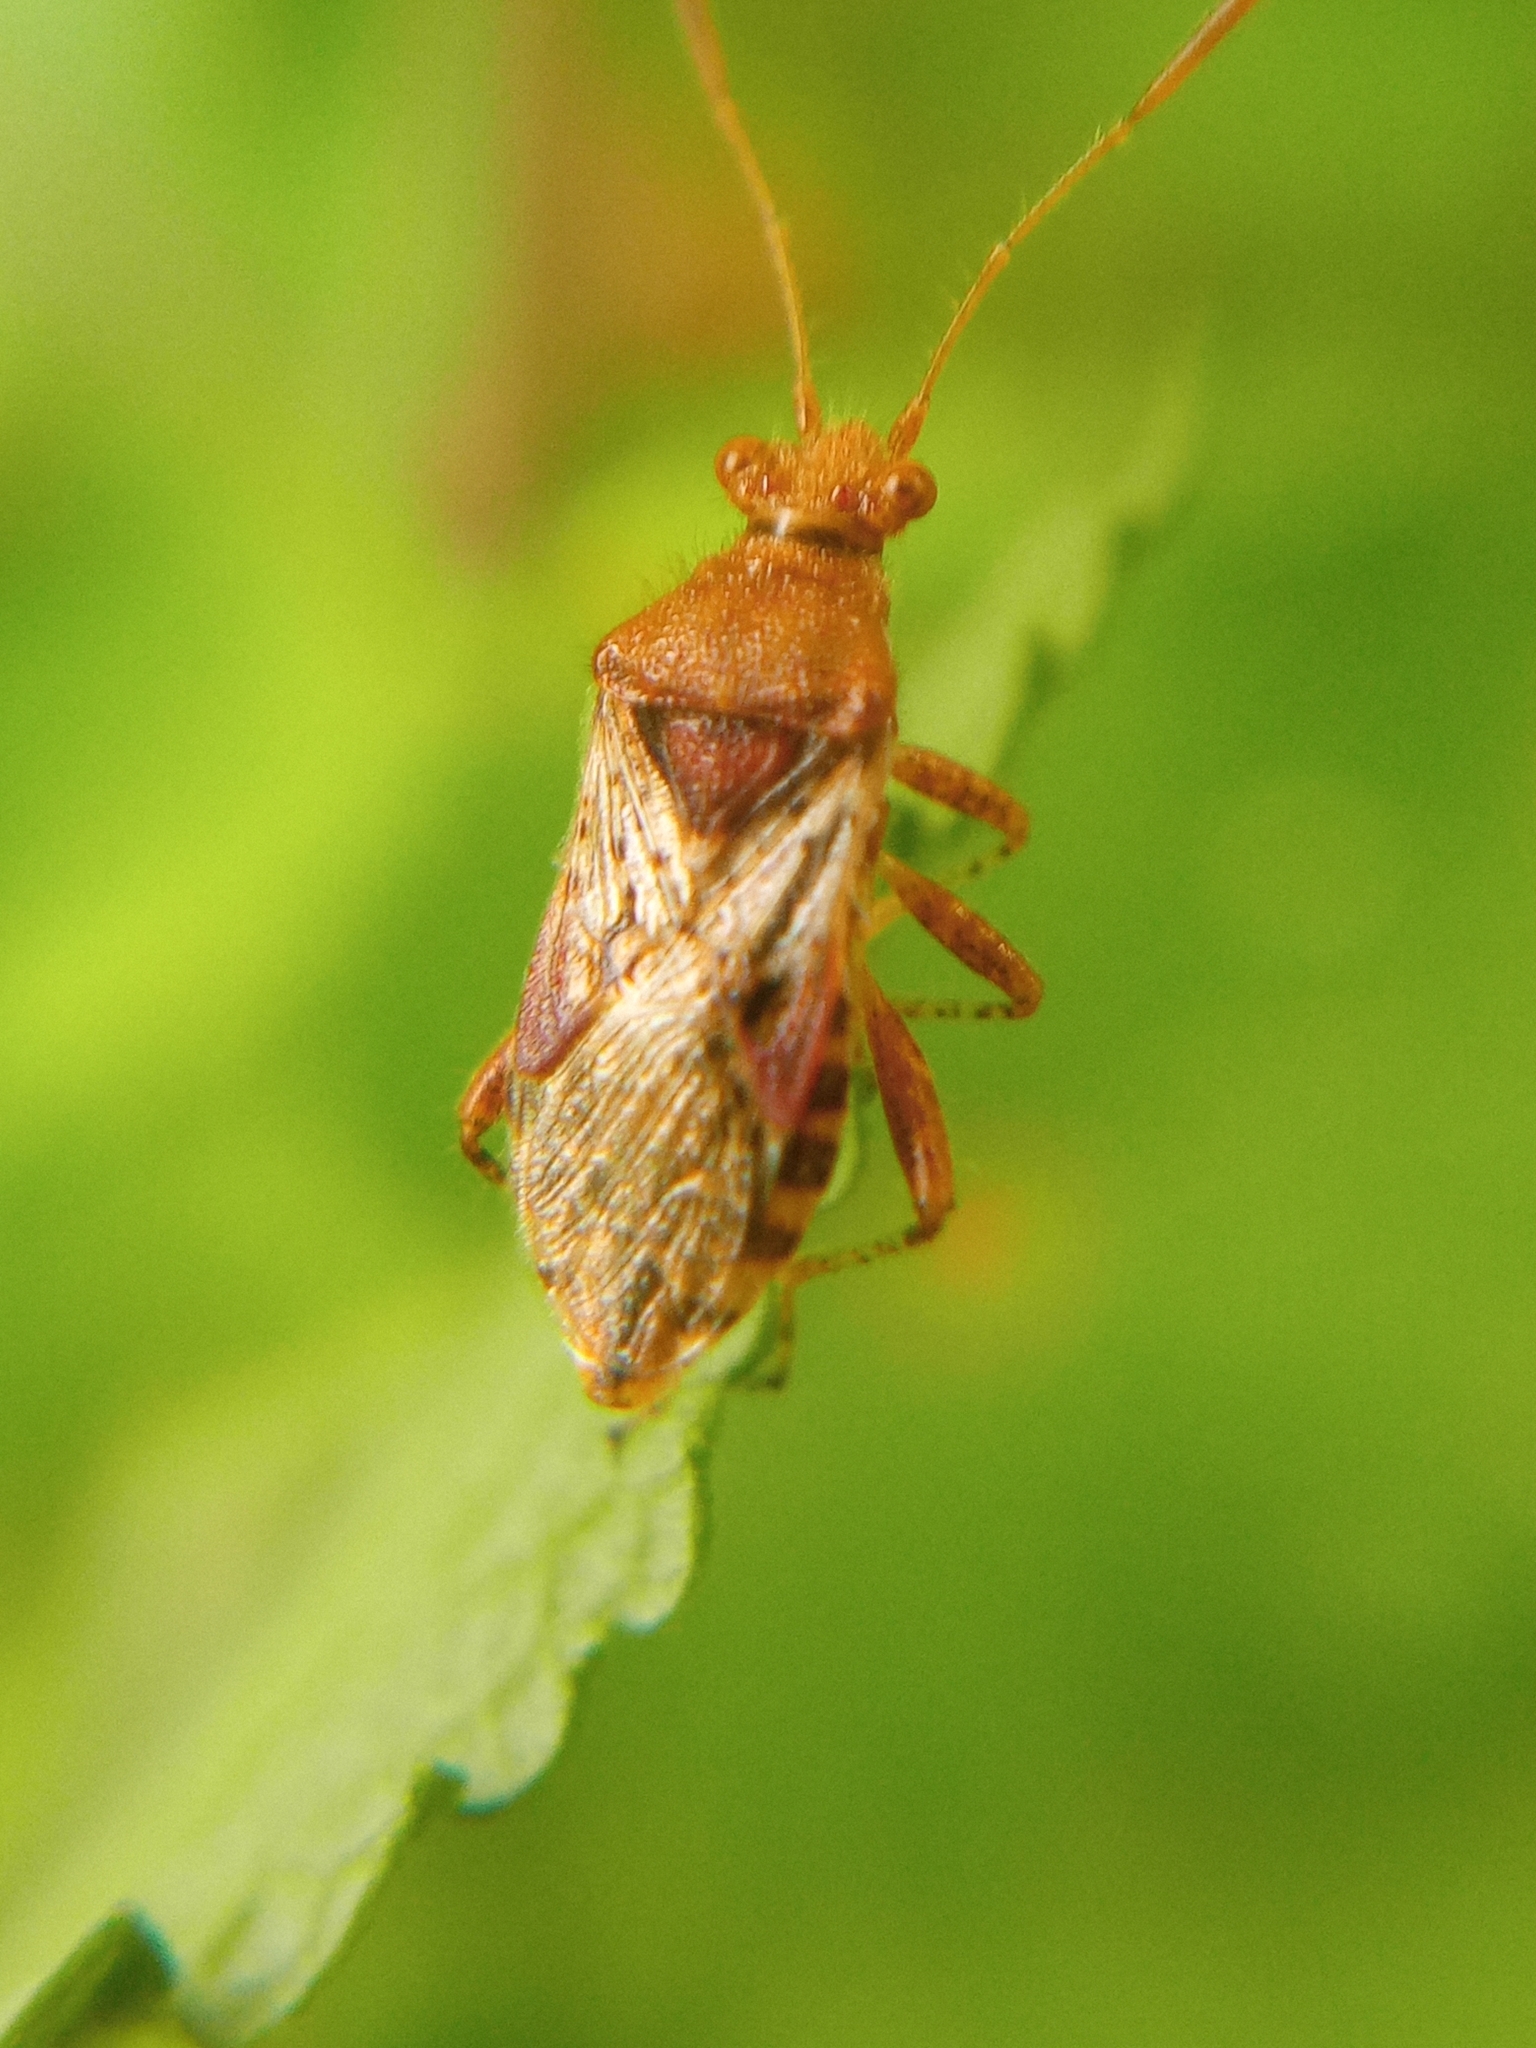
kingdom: Animalia
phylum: Arthropoda
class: Insecta
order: Hemiptera
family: Rhopalidae
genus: Rhopalus
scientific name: Rhopalus subrufus
